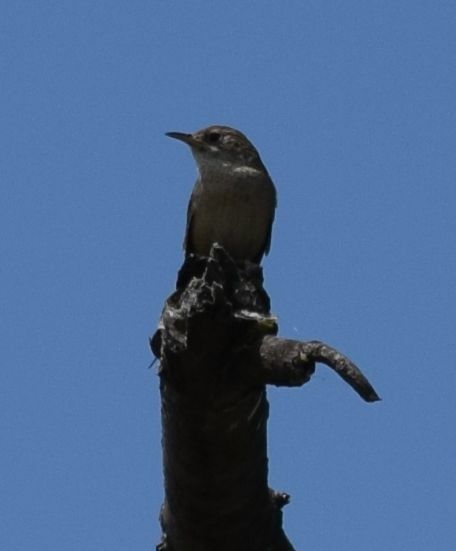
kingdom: Animalia
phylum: Chordata
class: Aves
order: Passeriformes
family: Troglodytidae
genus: Troglodytes
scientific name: Troglodytes aedon
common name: House wren
